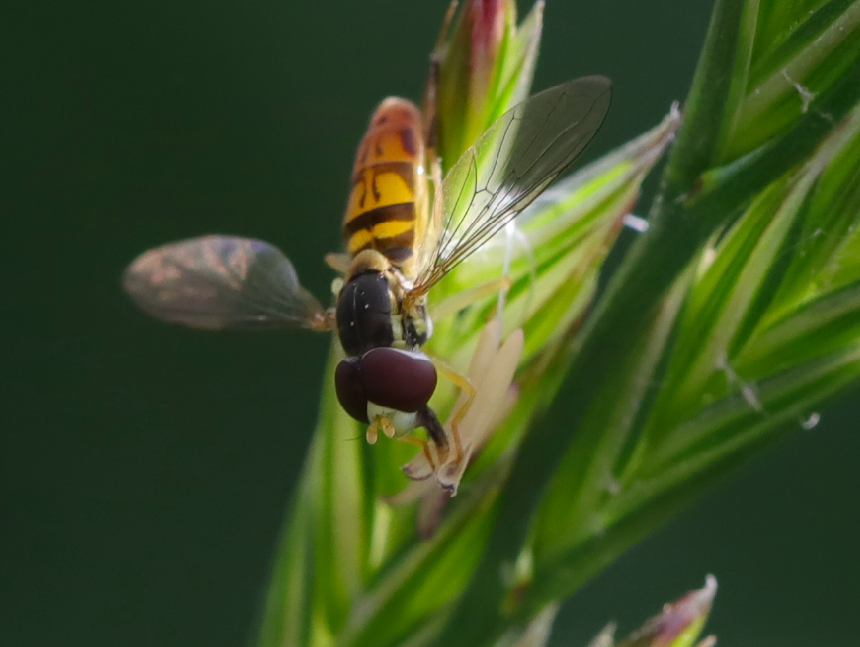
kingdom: Animalia
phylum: Arthropoda
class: Insecta
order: Diptera
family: Syrphidae
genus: Toxomerus
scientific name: Toxomerus marginatus
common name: Syrphid fly
